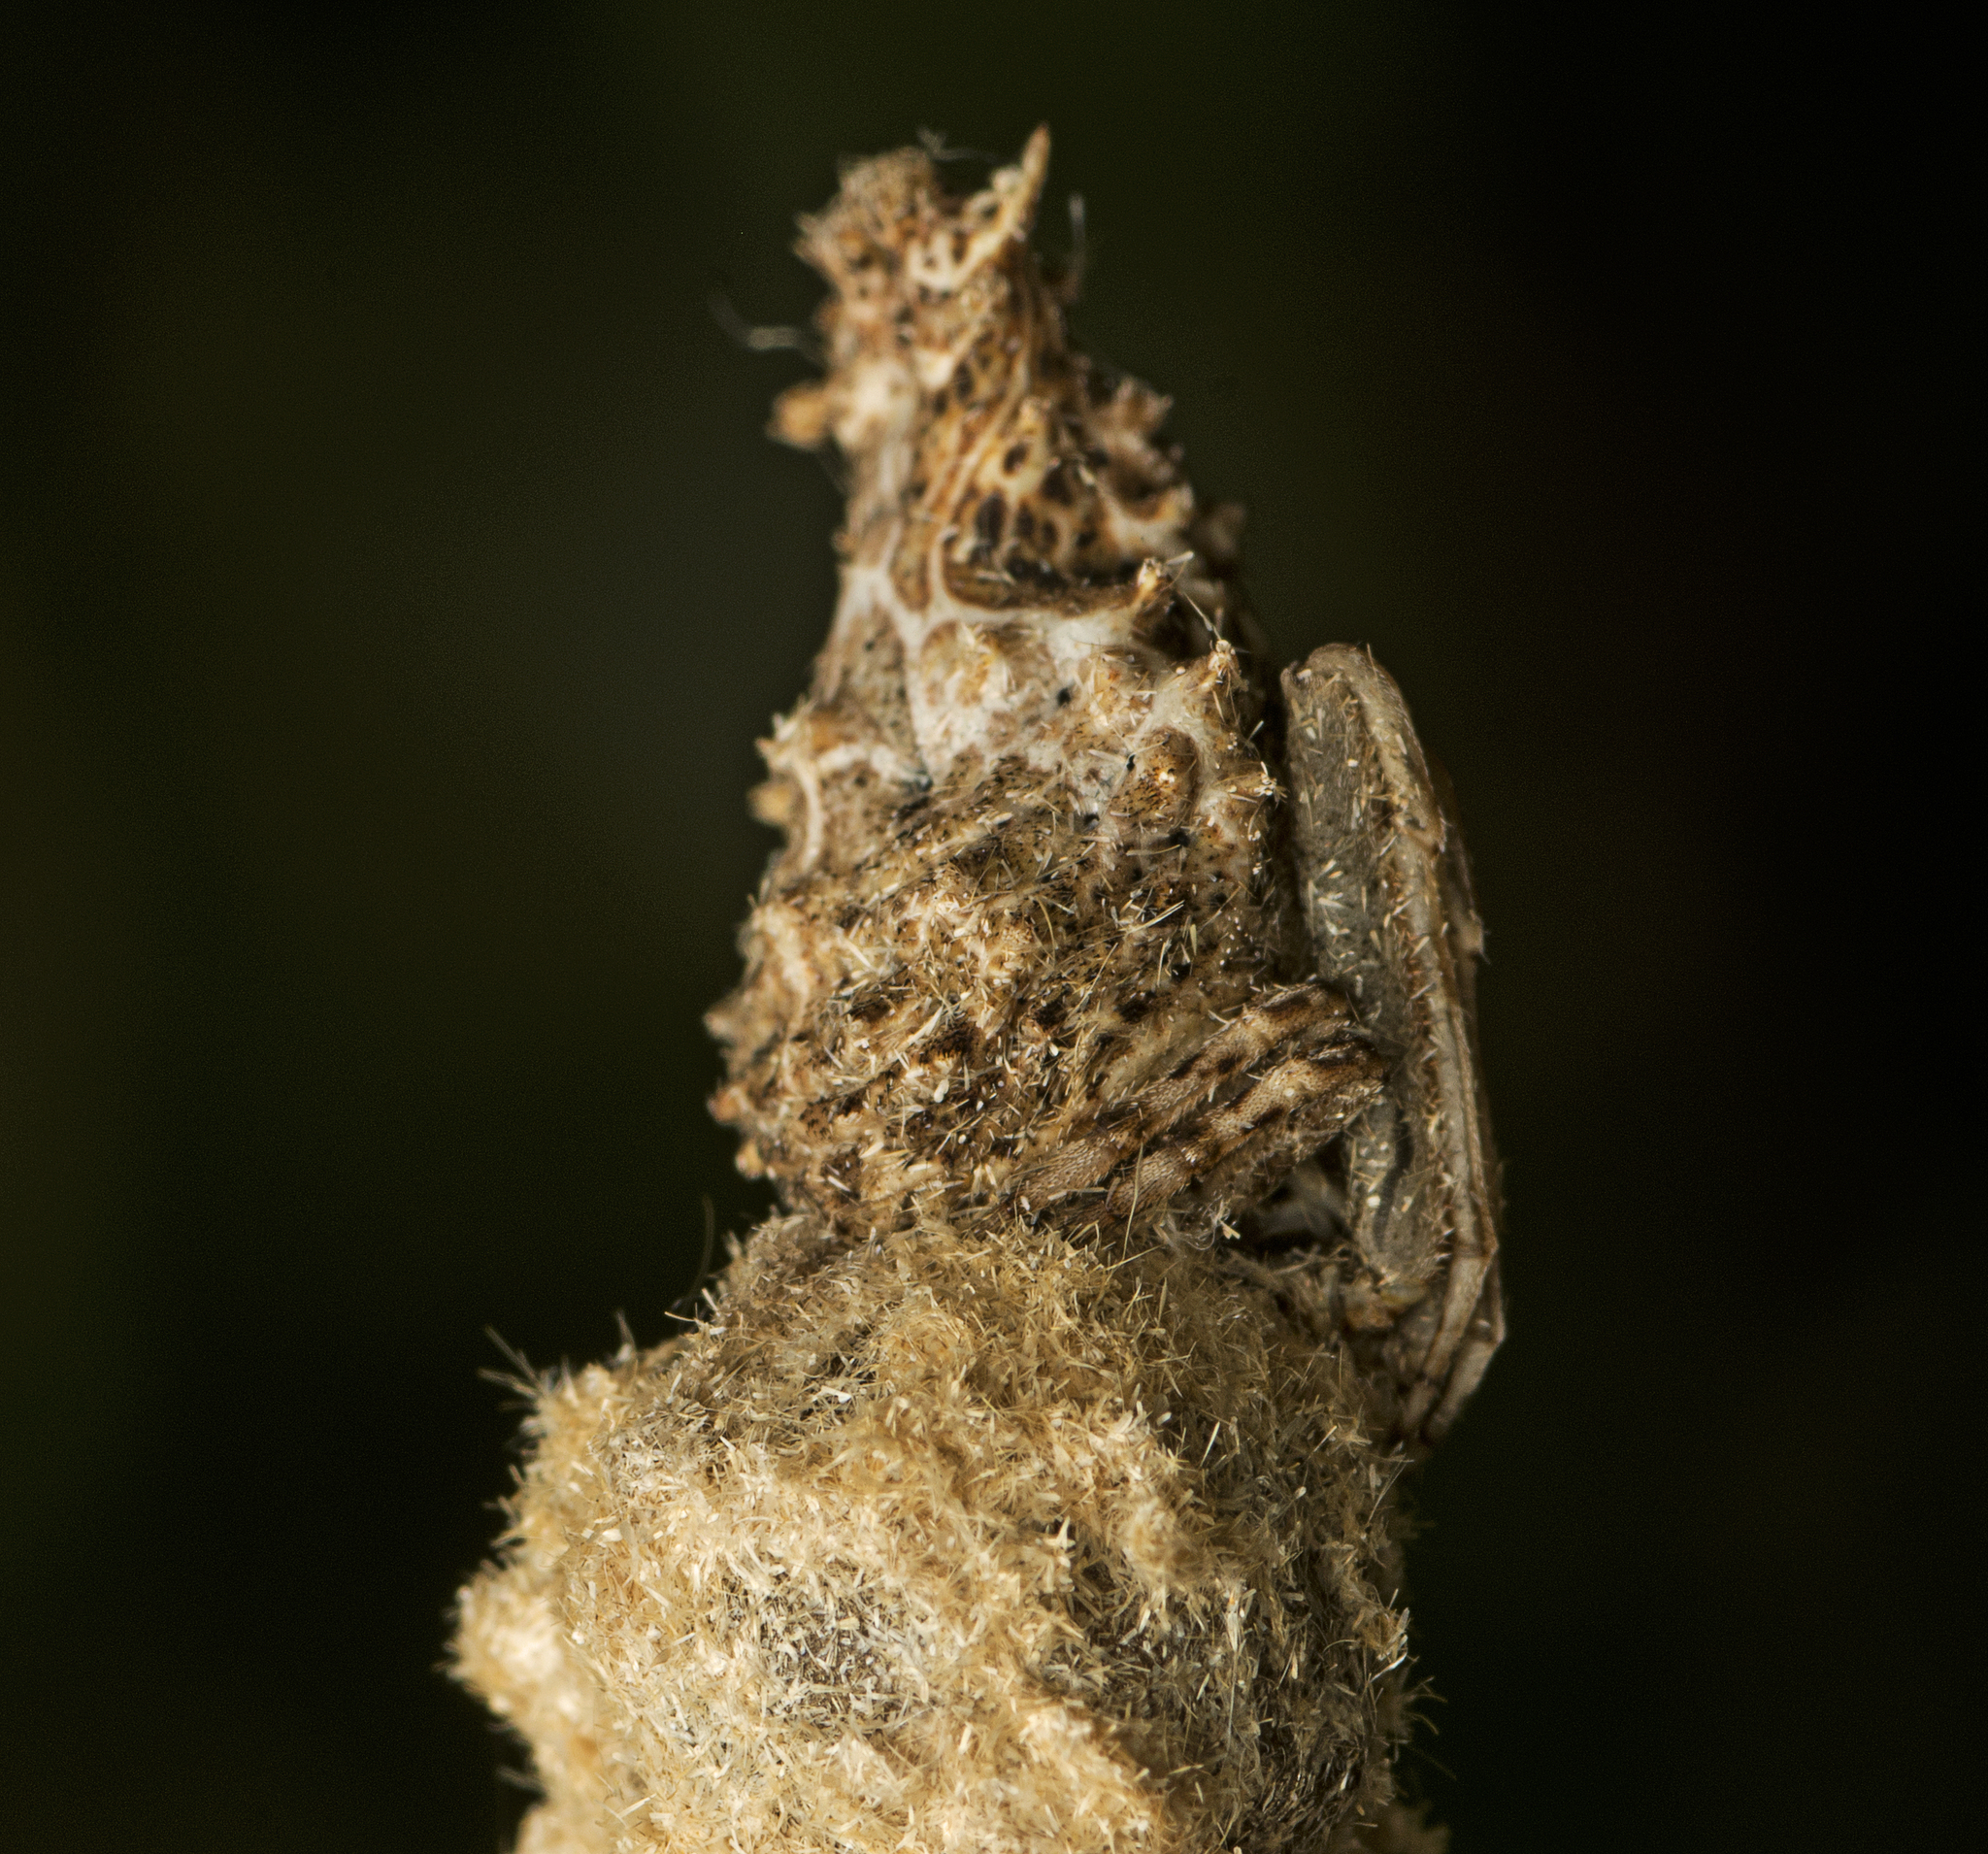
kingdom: Animalia
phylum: Arthropoda
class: Arachnida
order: Araneae
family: Araneidae
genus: Celaenia
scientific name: Celaenia distincta
